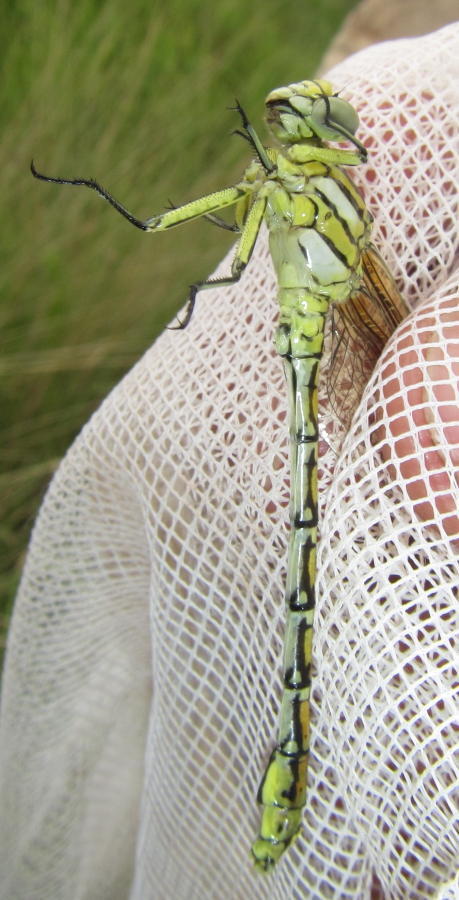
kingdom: Animalia
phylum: Arthropoda
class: Insecta
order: Odonata
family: Gomphidae
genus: Ceratogomphus
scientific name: Ceratogomphus pictus
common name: Common thorntail
